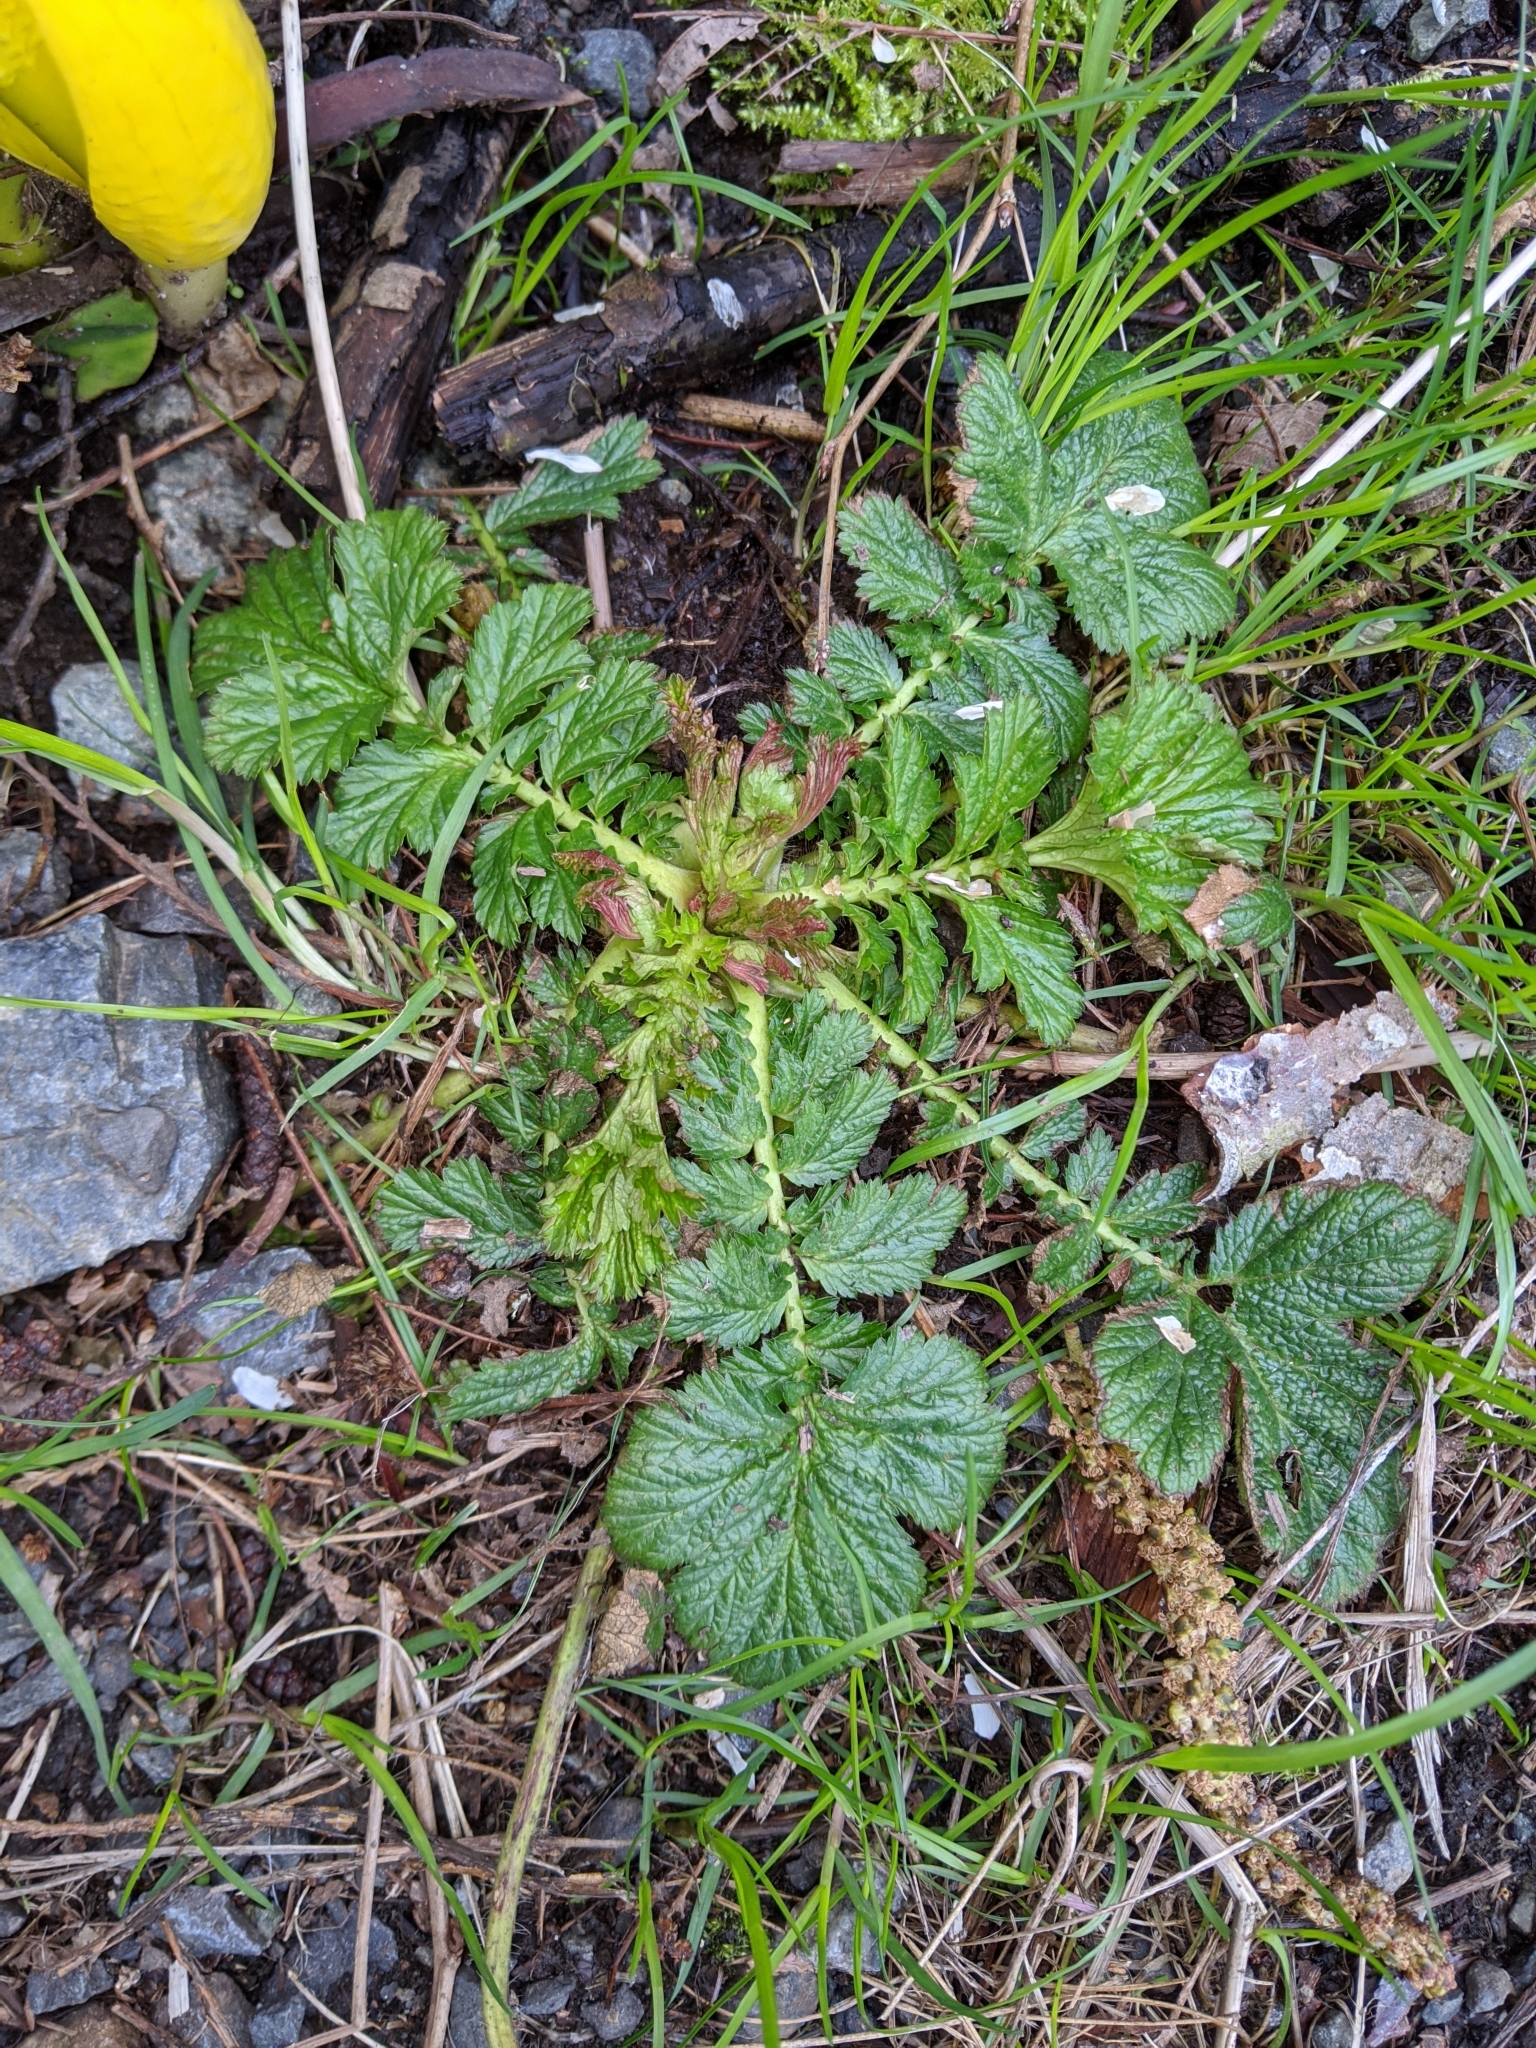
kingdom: Plantae
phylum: Tracheophyta
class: Magnoliopsida
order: Rosales
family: Rosaceae
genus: Geum
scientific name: Geum macrophyllum
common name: Large-leaved avens
